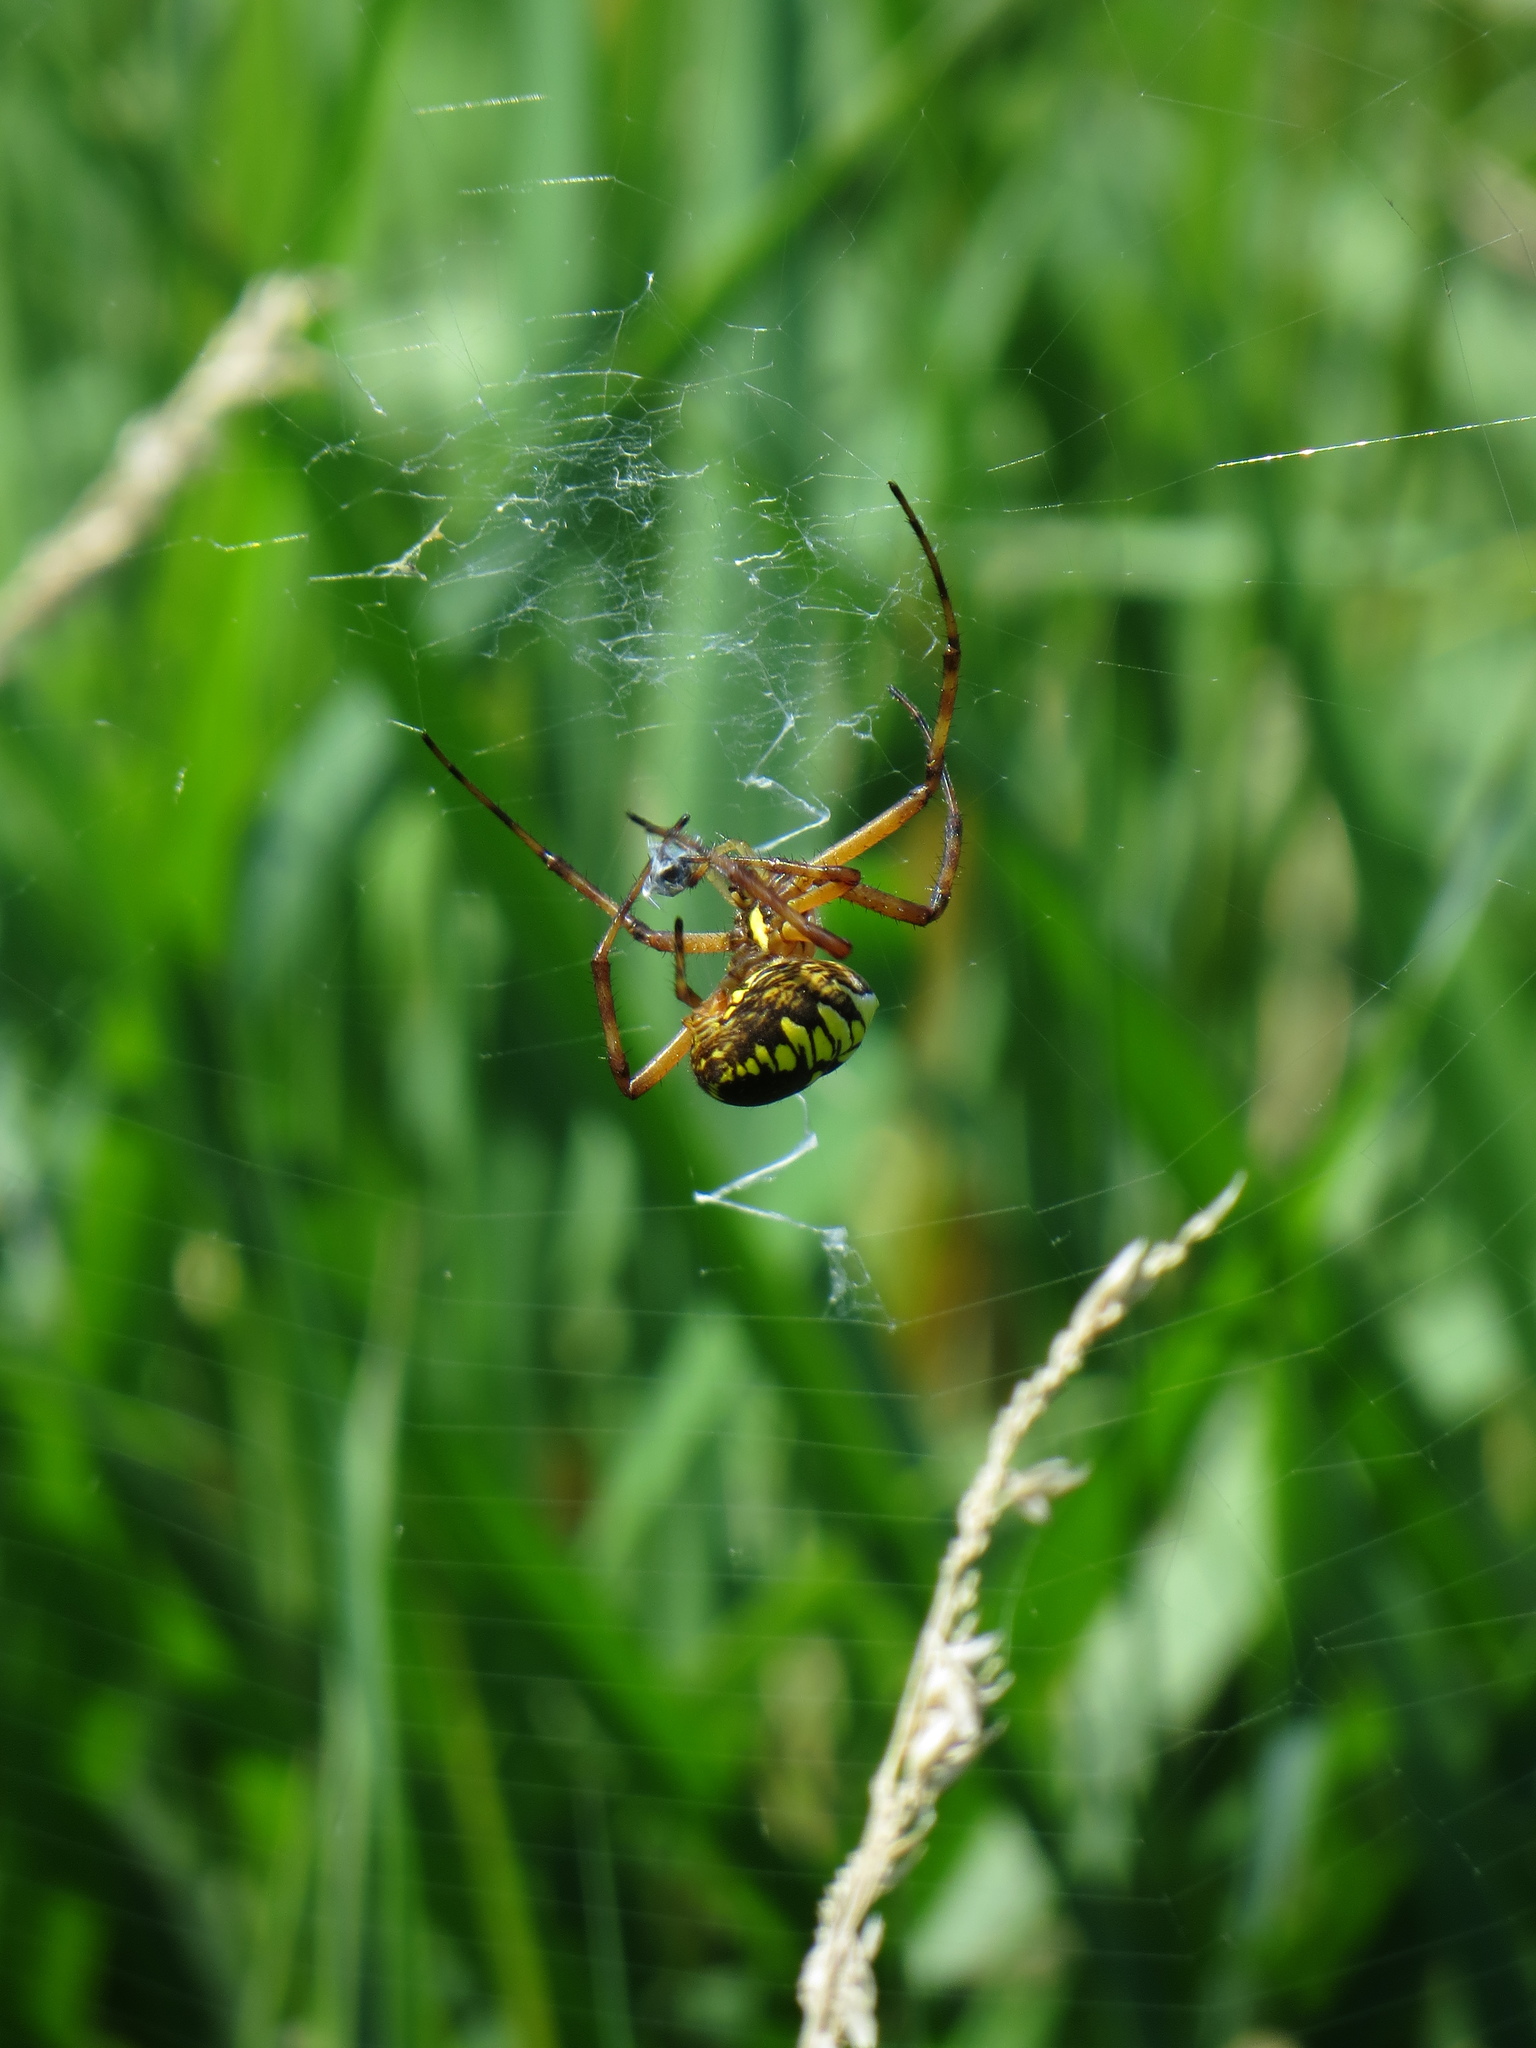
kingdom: Animalia
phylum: Arthropoda
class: Arachnida
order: Araneae
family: Araneidae
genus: Argiope
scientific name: Argiope aurantia
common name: Orb weavers
